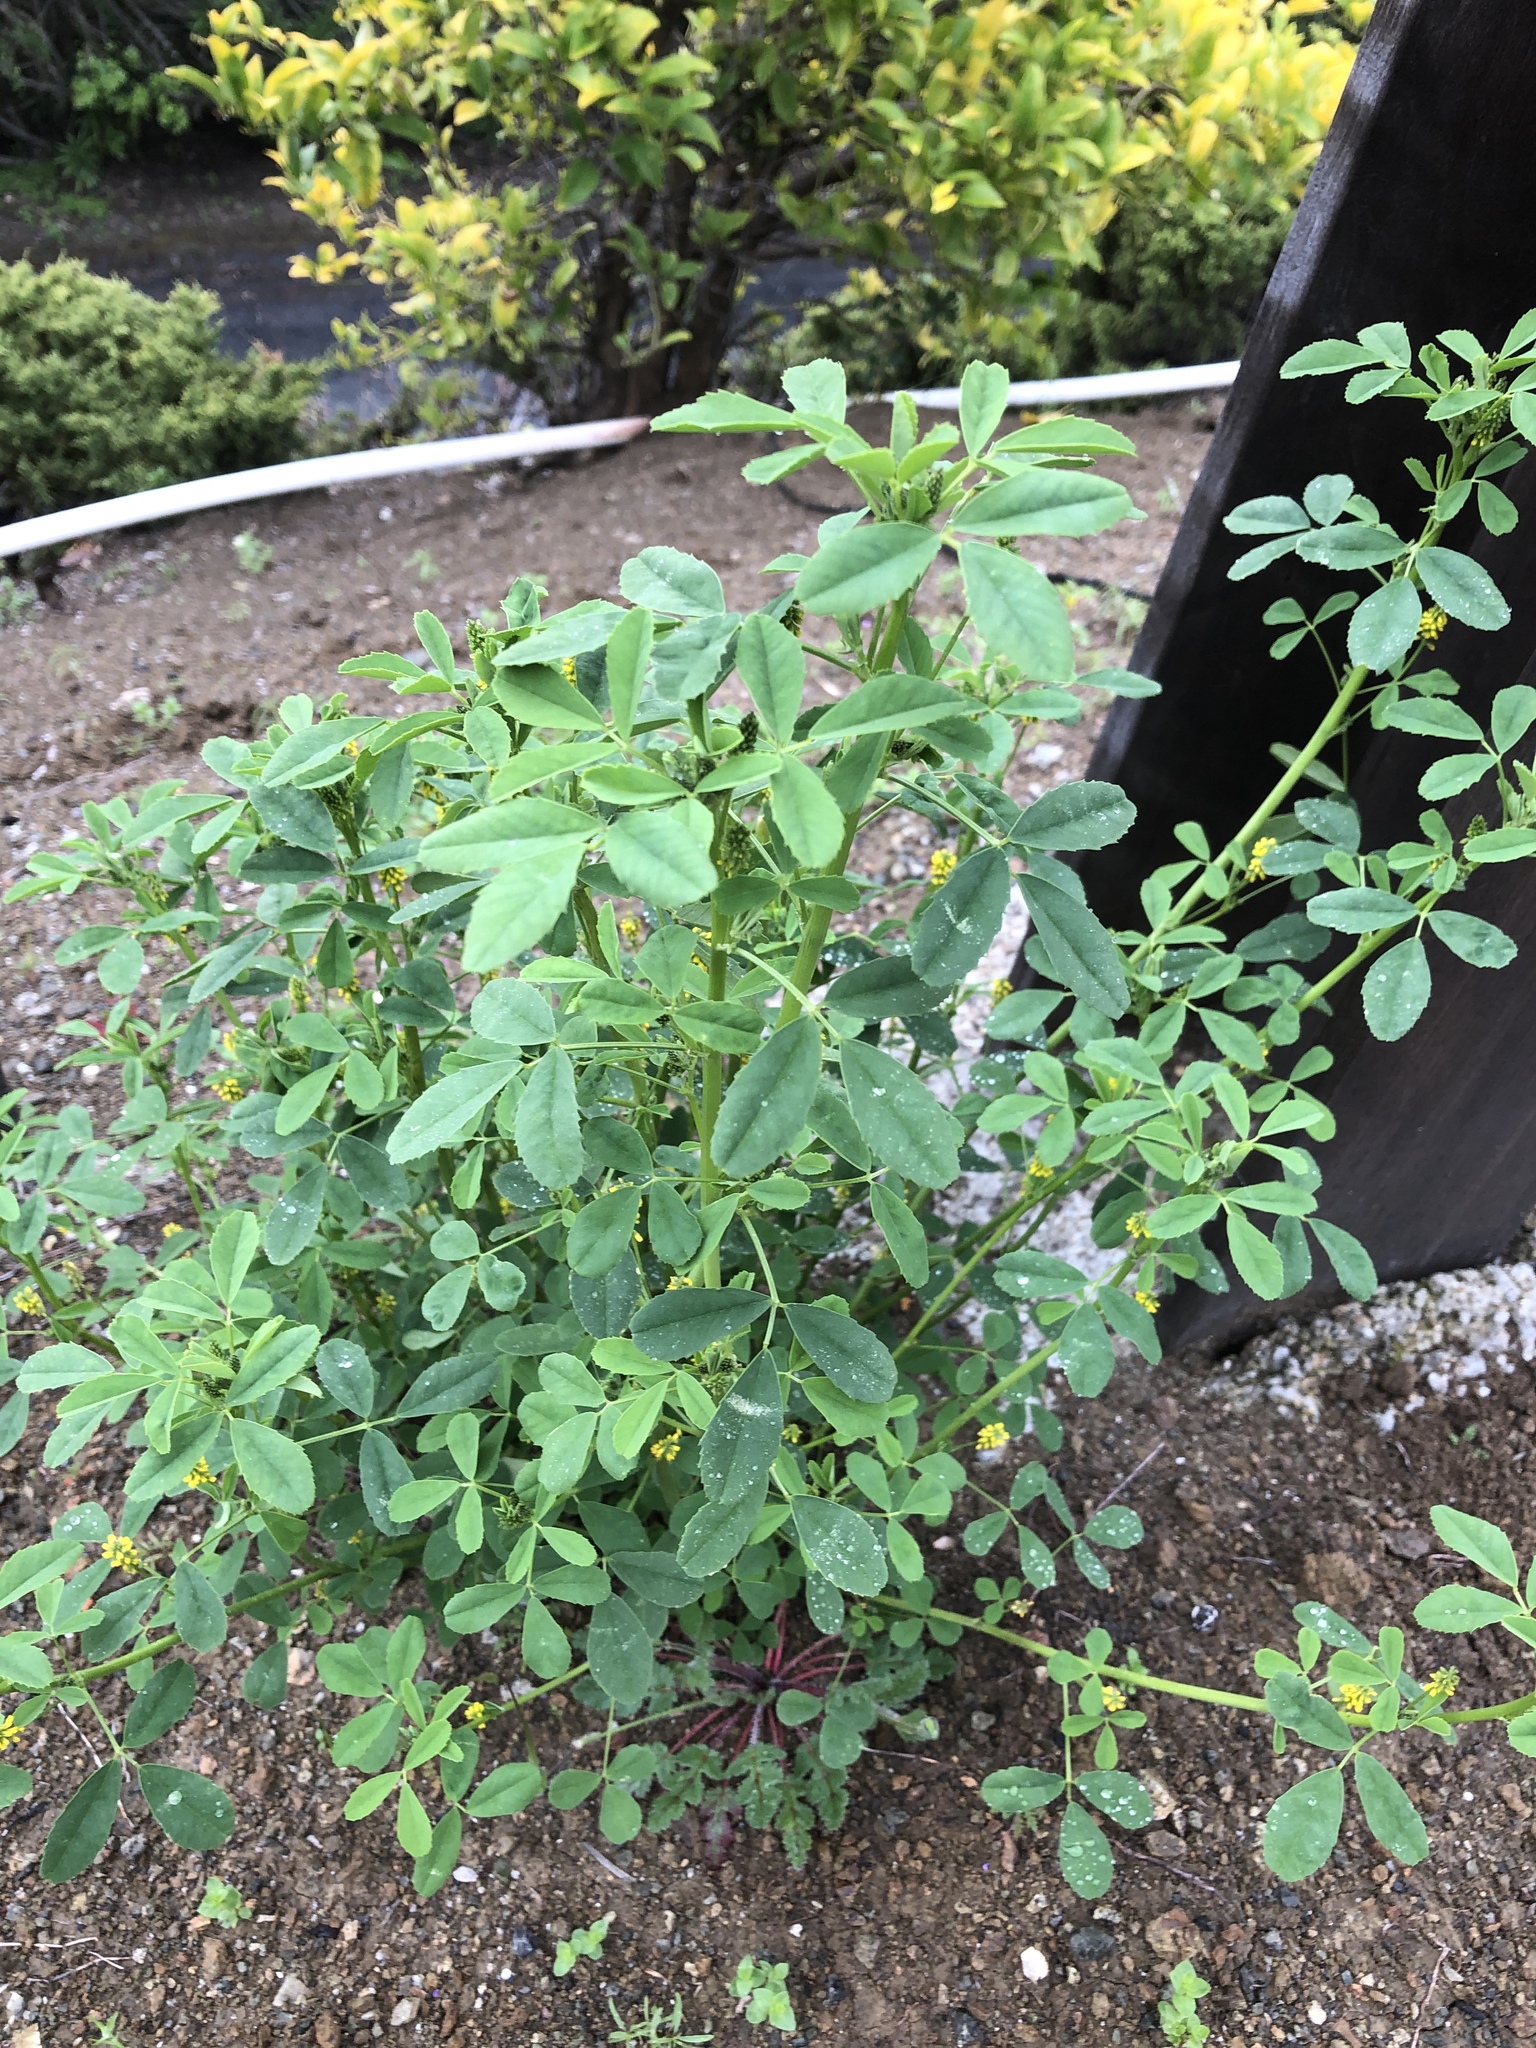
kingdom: Plantae
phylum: Tracheophyta
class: Magnoliopsida
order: Fabales
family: Fabaceae
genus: Melilotus
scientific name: Melilotus indicus
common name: Small melilot
